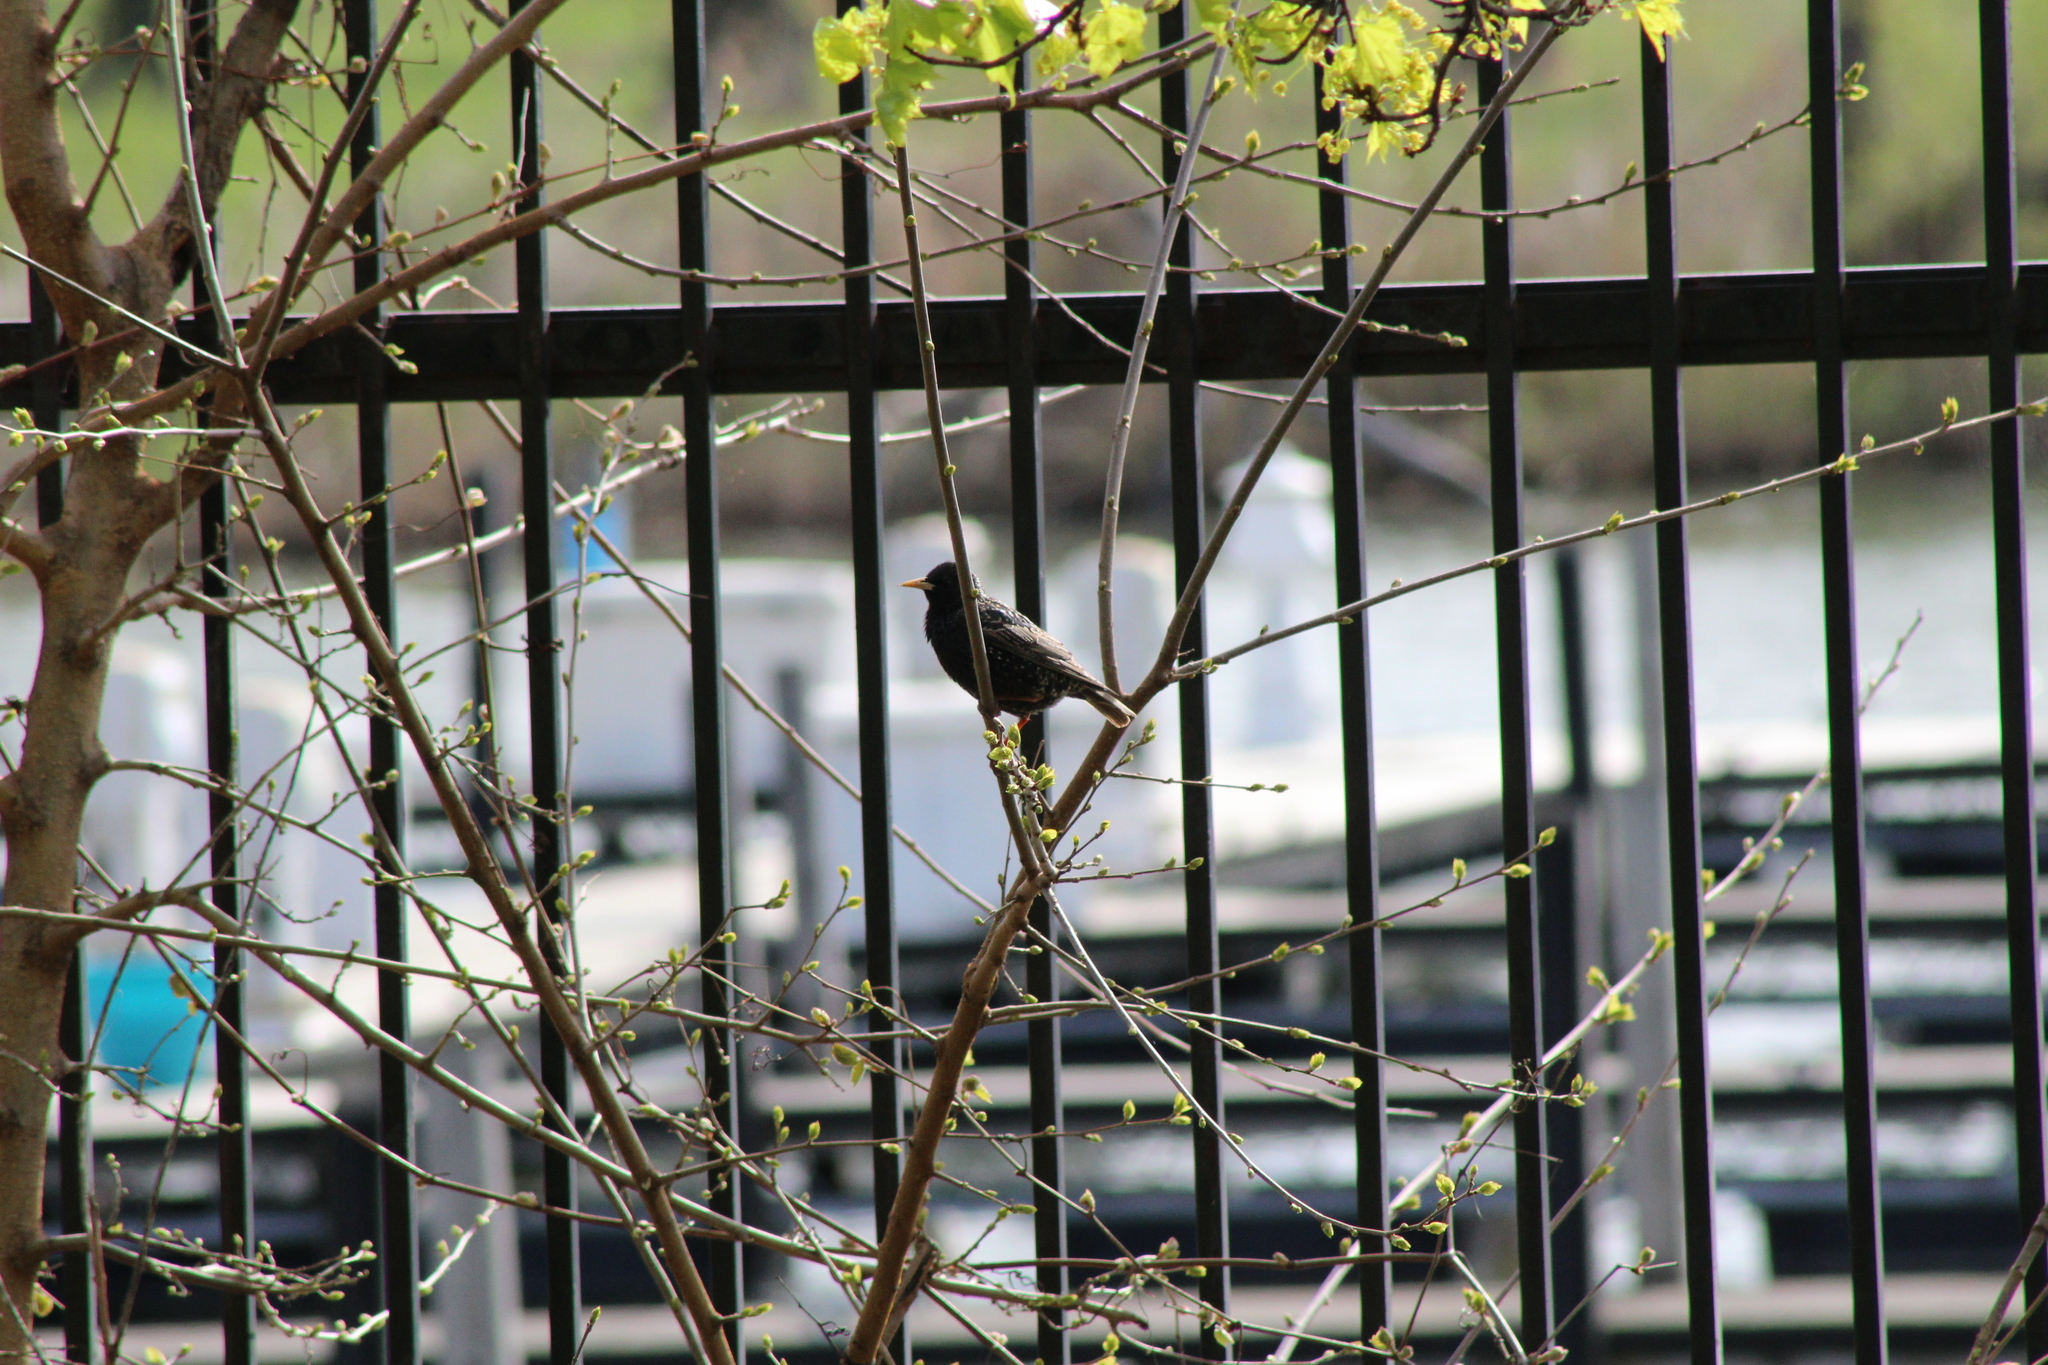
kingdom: Animalia
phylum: Chordata
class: Aves
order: Passeriformes
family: Sturnidae
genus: Sturnus
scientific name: Sturnus vulgaris
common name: Common starling
